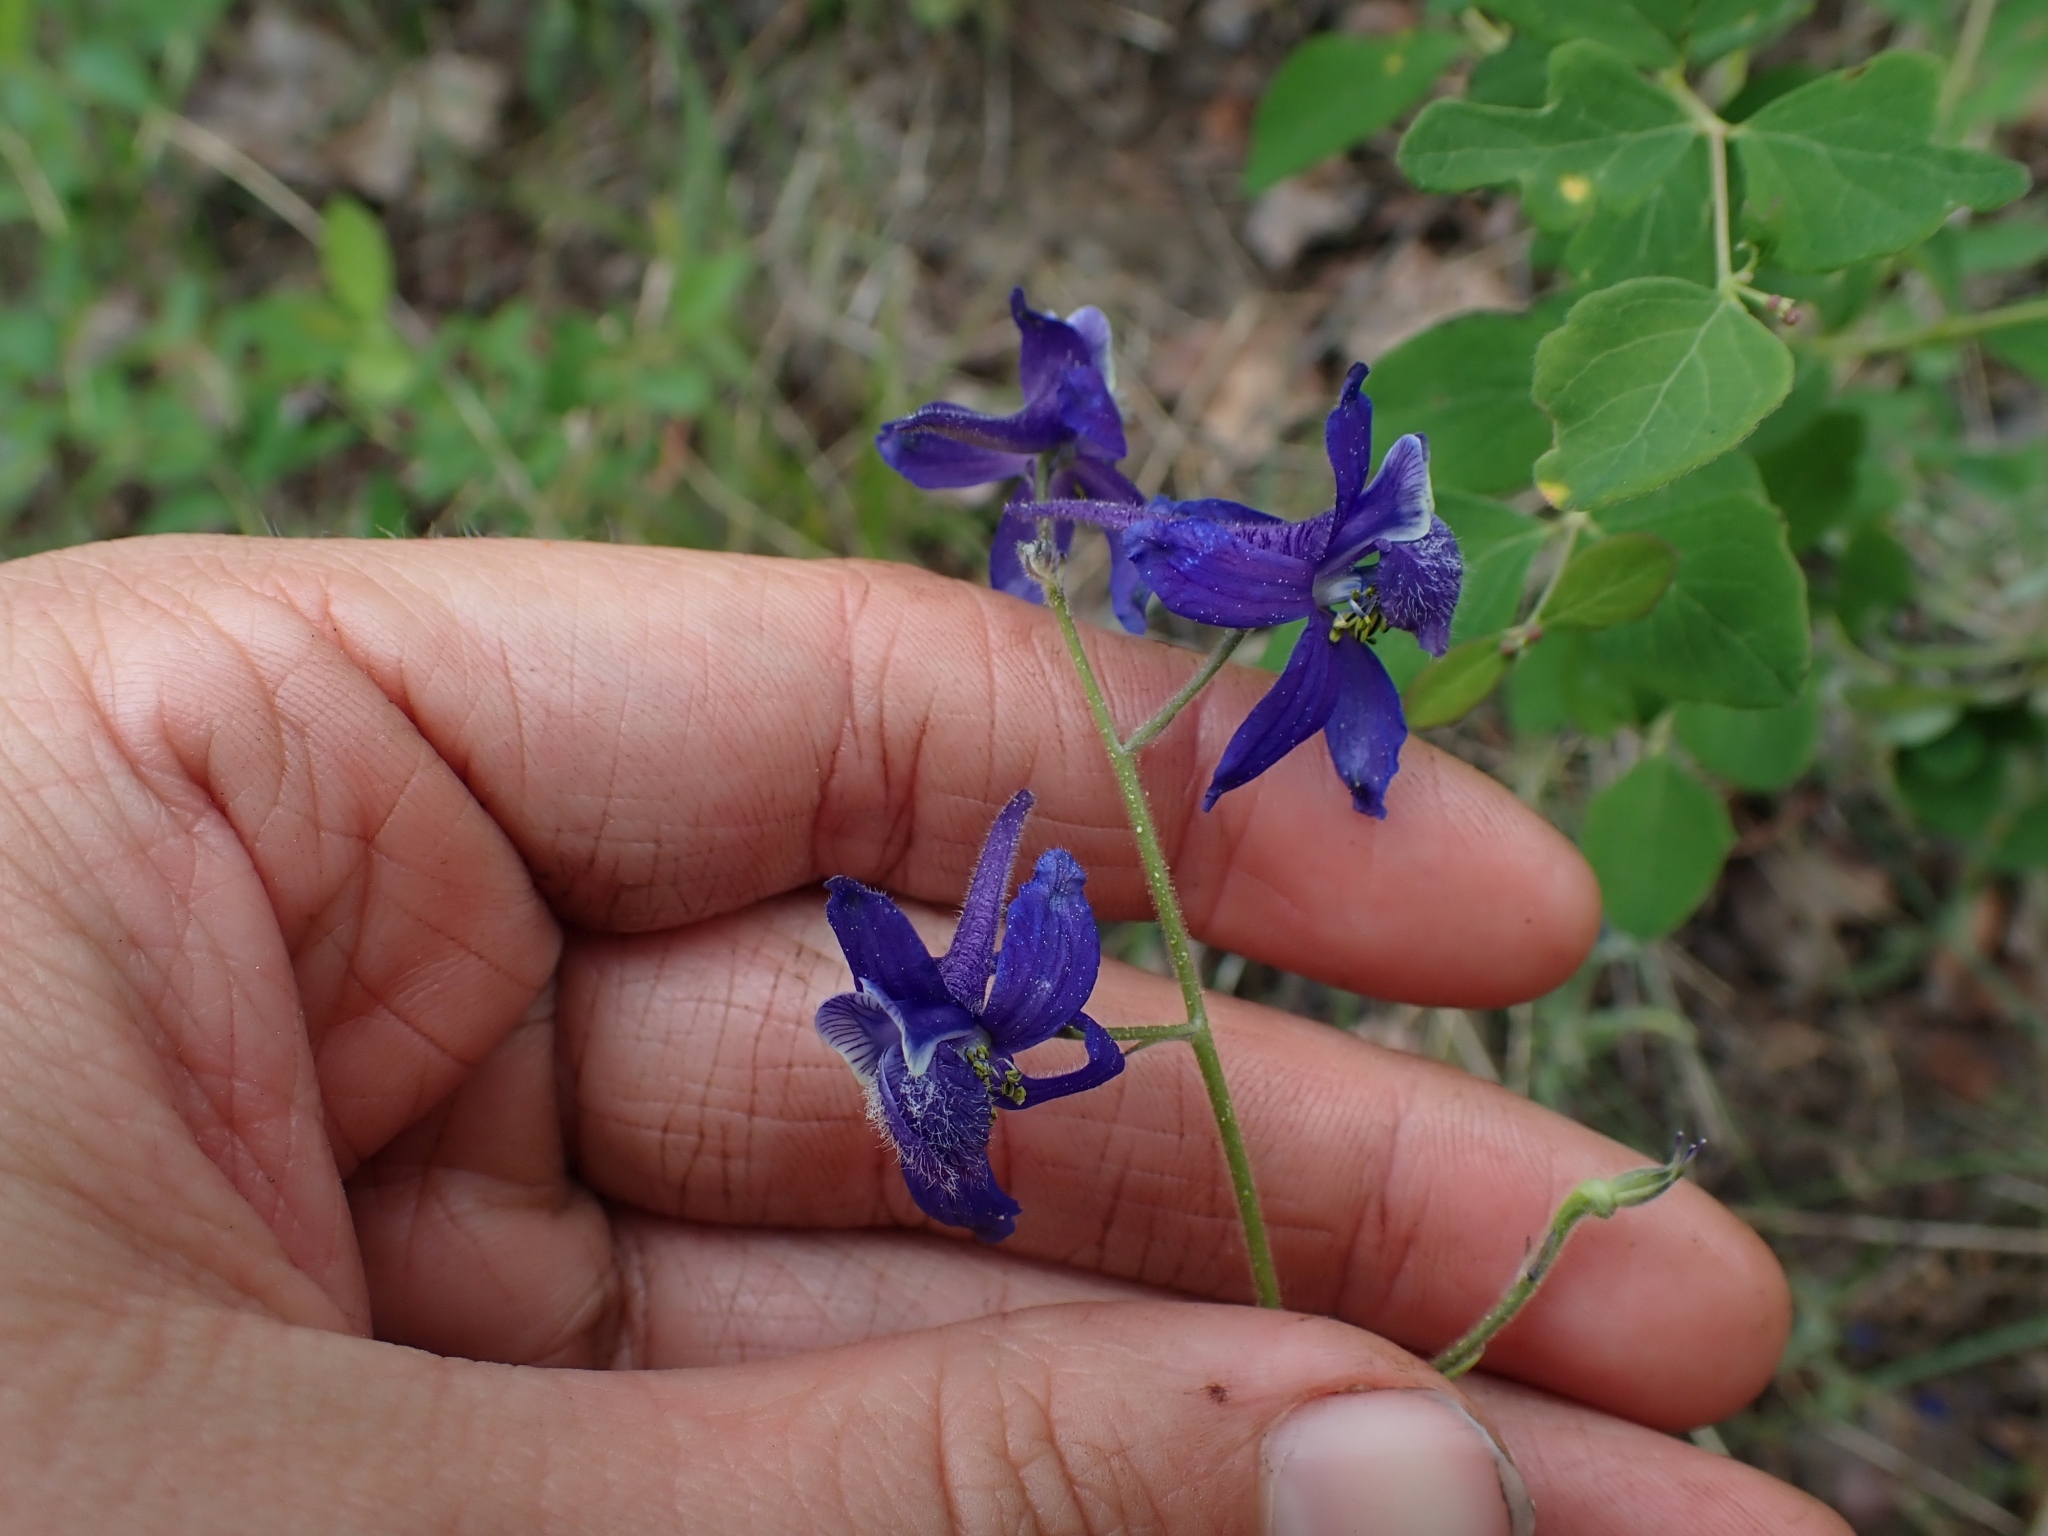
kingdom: Plantae
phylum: Tracheophyta
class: Magnoliopsida
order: Ranunculales
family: Ranunculaceae
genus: Delphinium
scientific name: Delphinium nuttallianum
